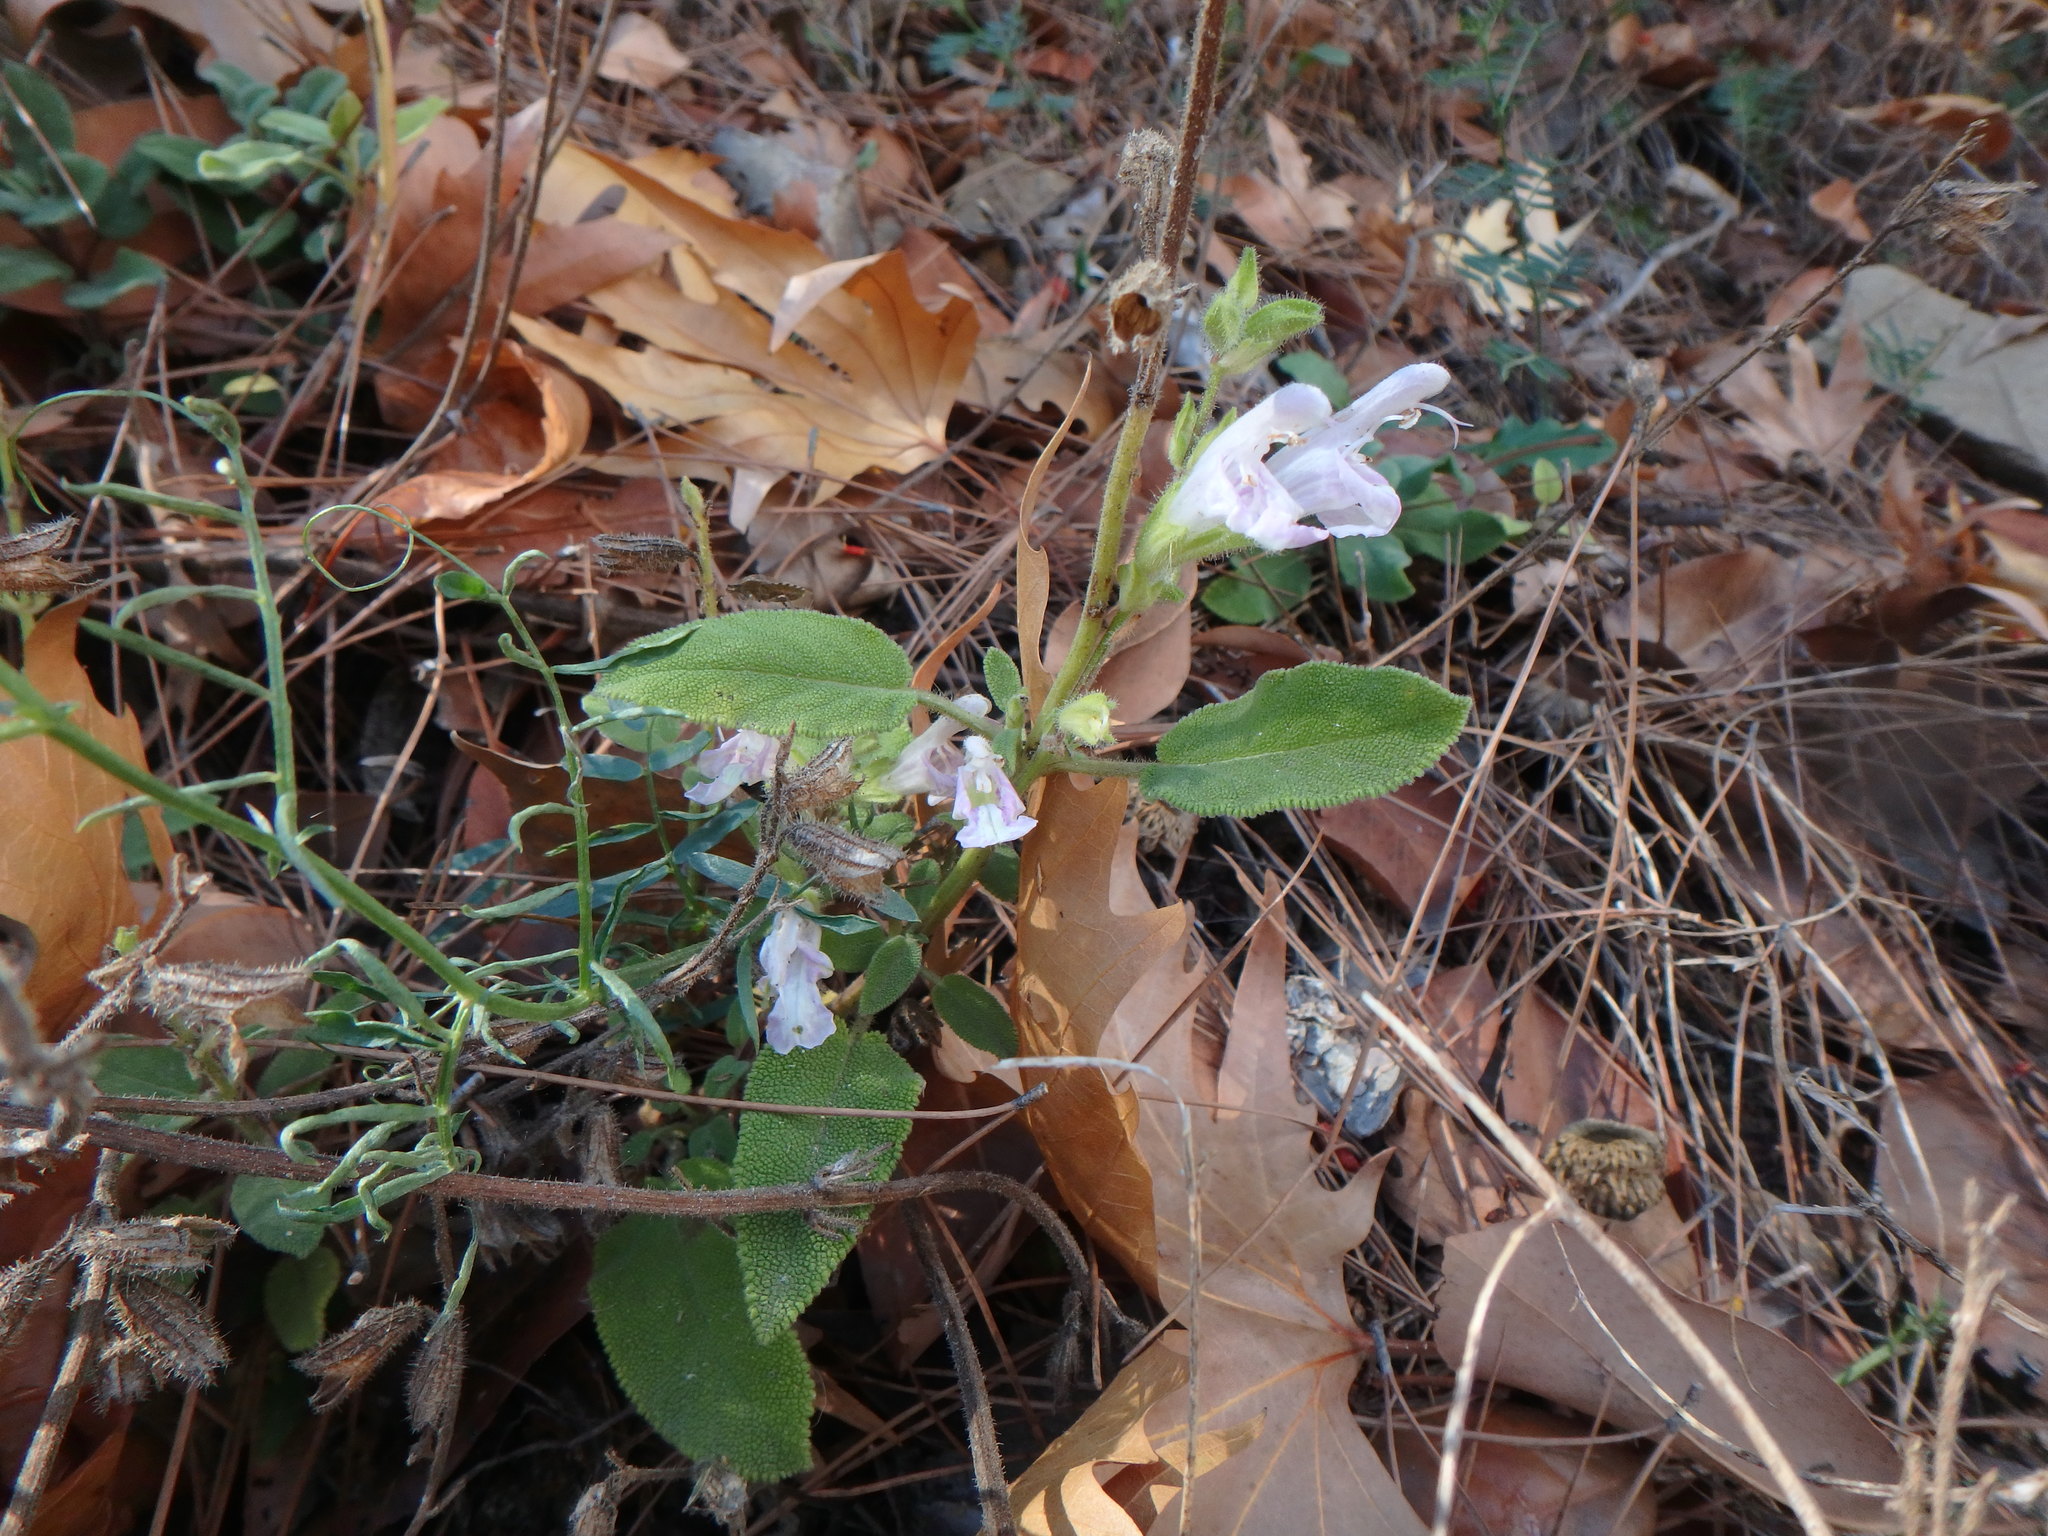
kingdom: Plantae
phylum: Tracheophyta
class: Magnoliopsida
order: Lamiales
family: Lamiaceae
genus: Salvia
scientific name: Salvia willeana
